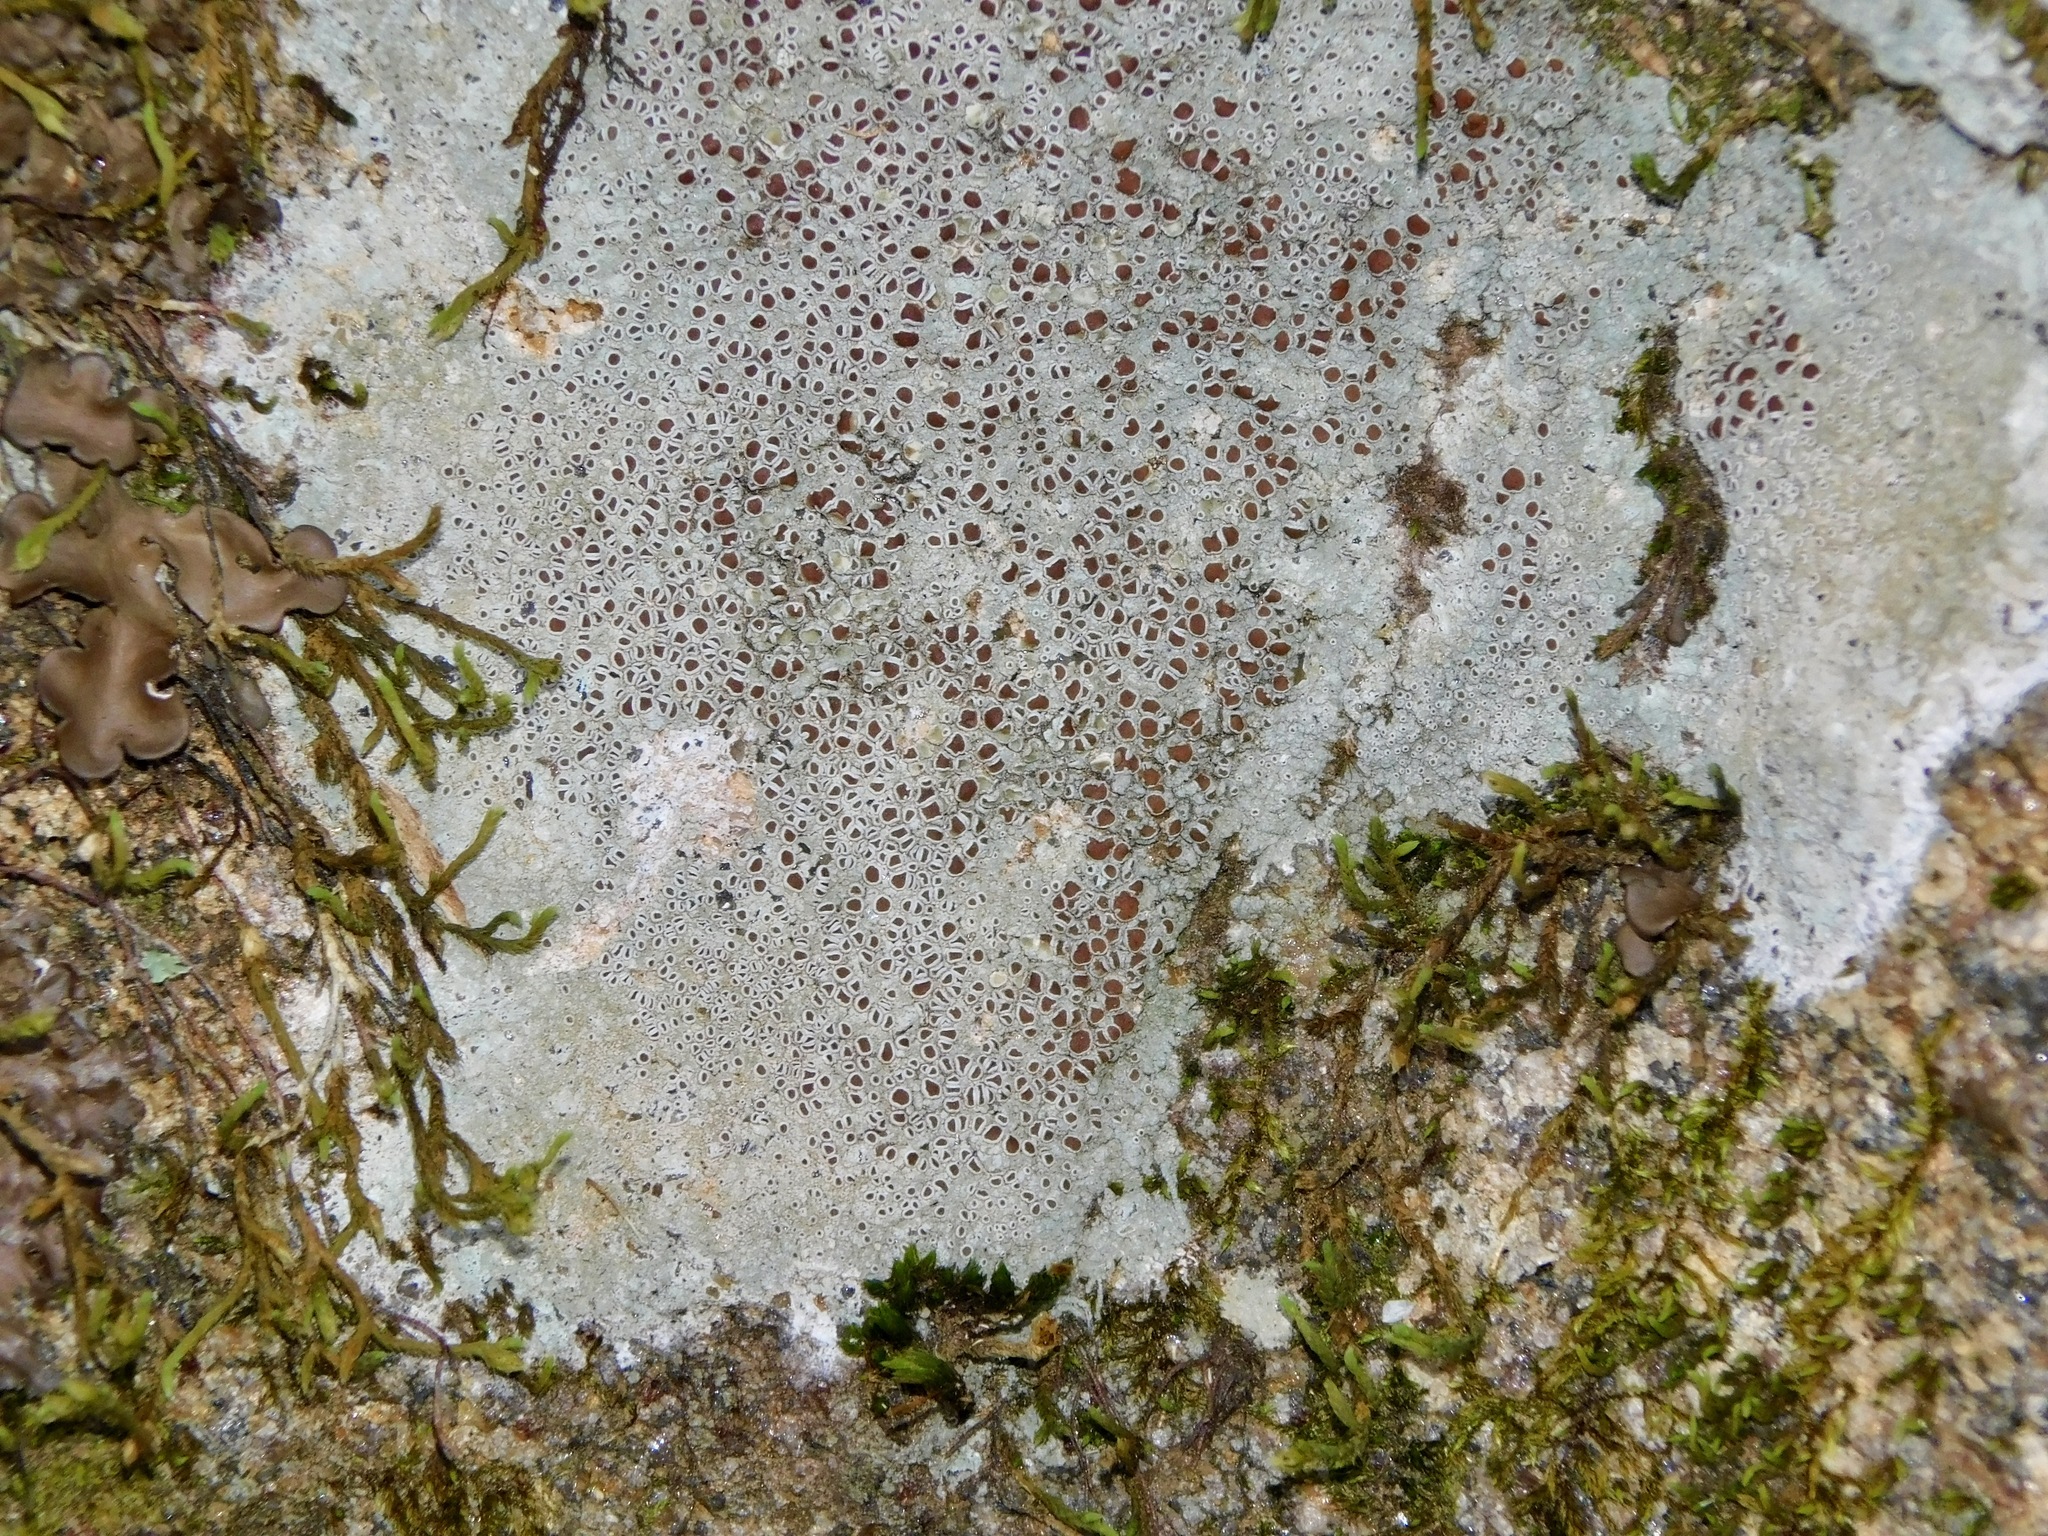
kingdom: Fungi
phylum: Ascomycota
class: Lecanoromycetes
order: Lecanorales
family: Lecanoraceae
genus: Lecanora
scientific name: Lecanora saxigena
